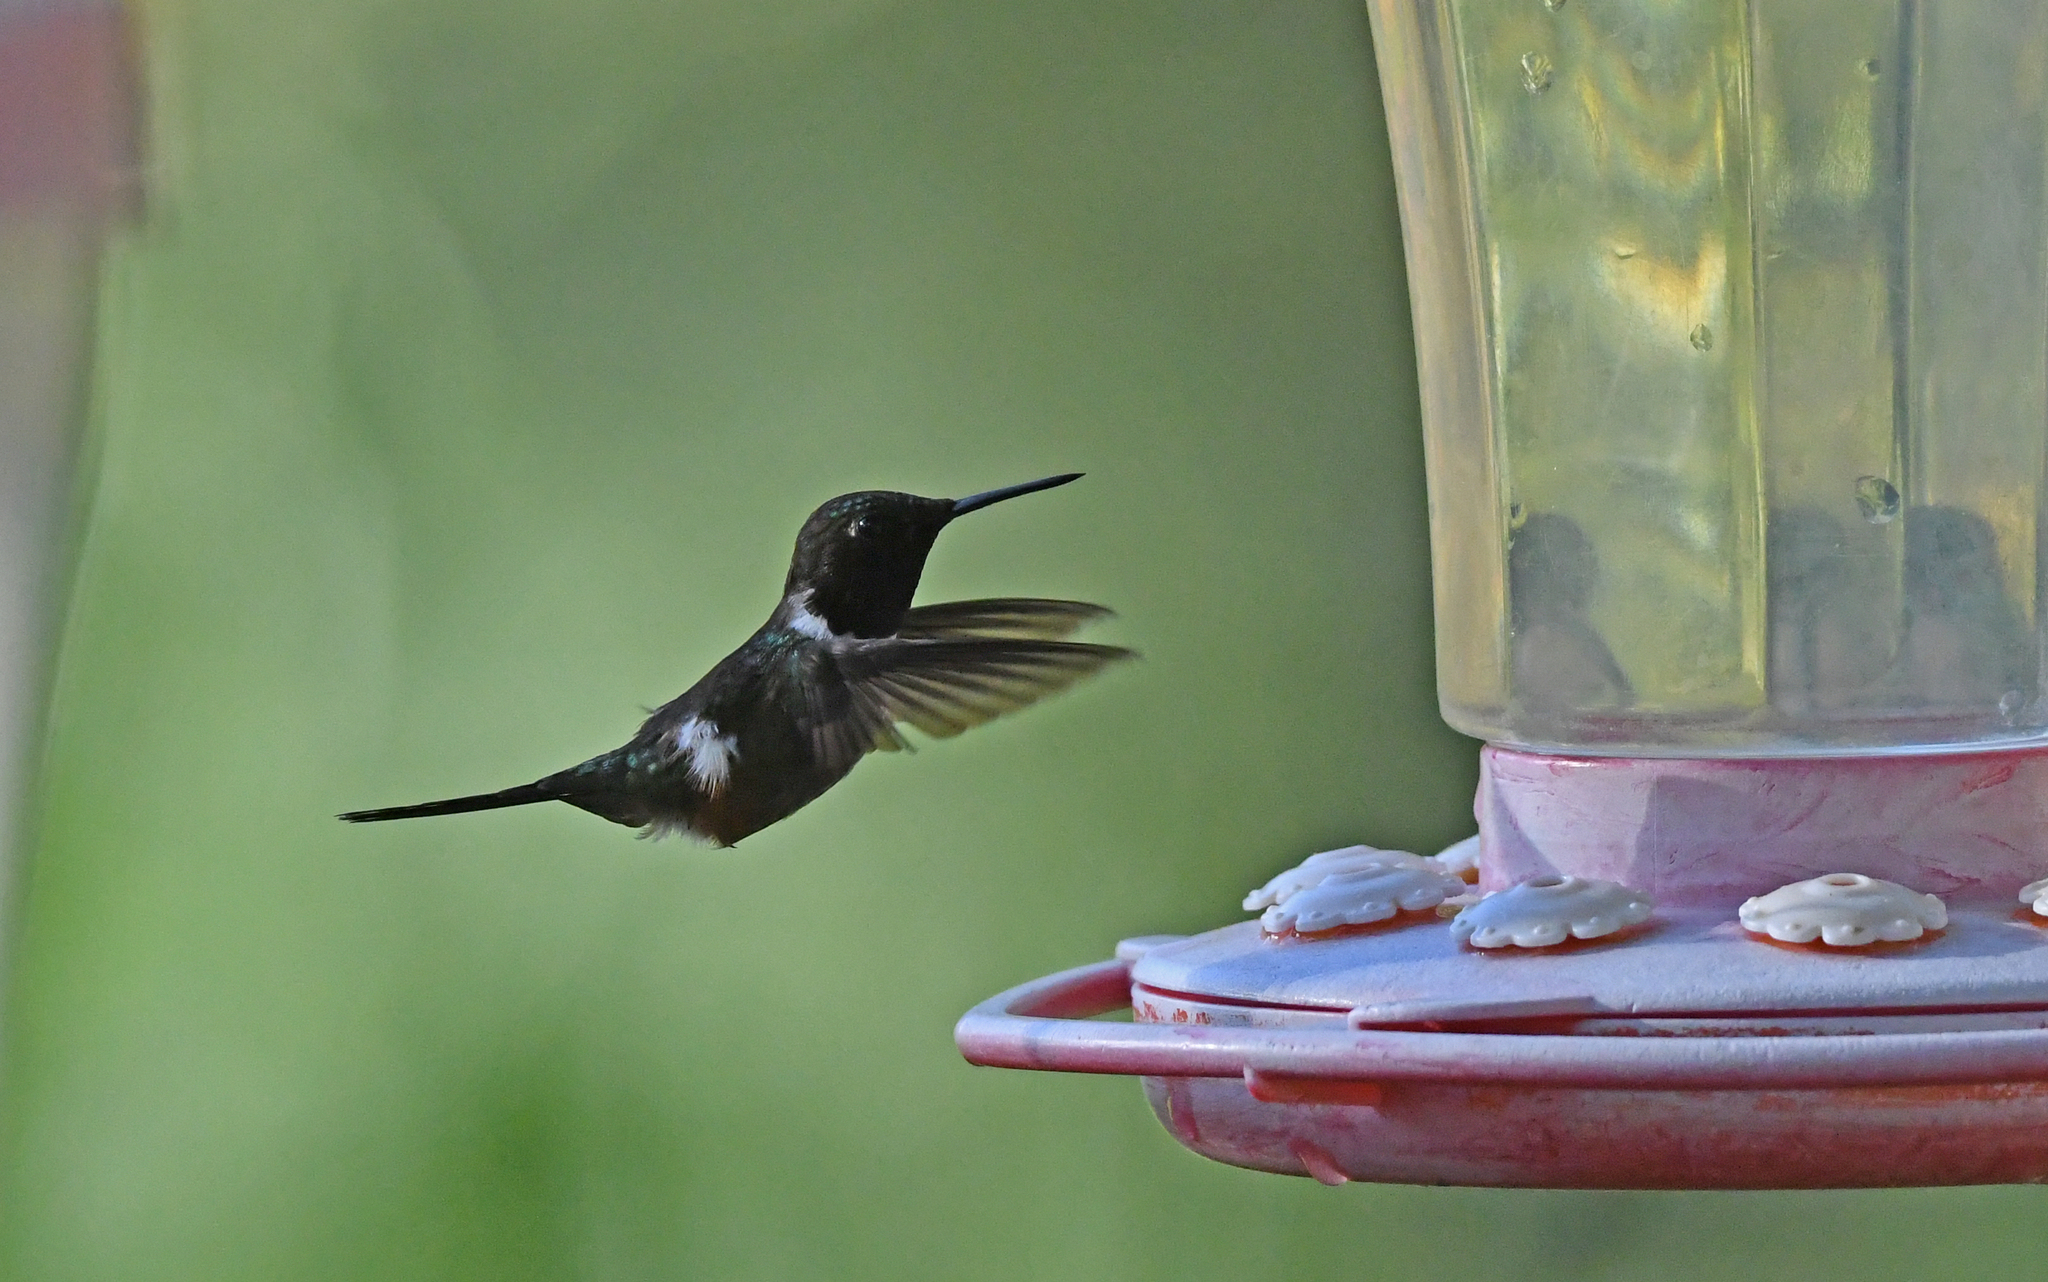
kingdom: Animalia
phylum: Chordata
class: Aves
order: Apodiformes
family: Trochilidae
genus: Calliphlox
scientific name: Calliphlox mitchellii
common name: Purple-throated woodstar
